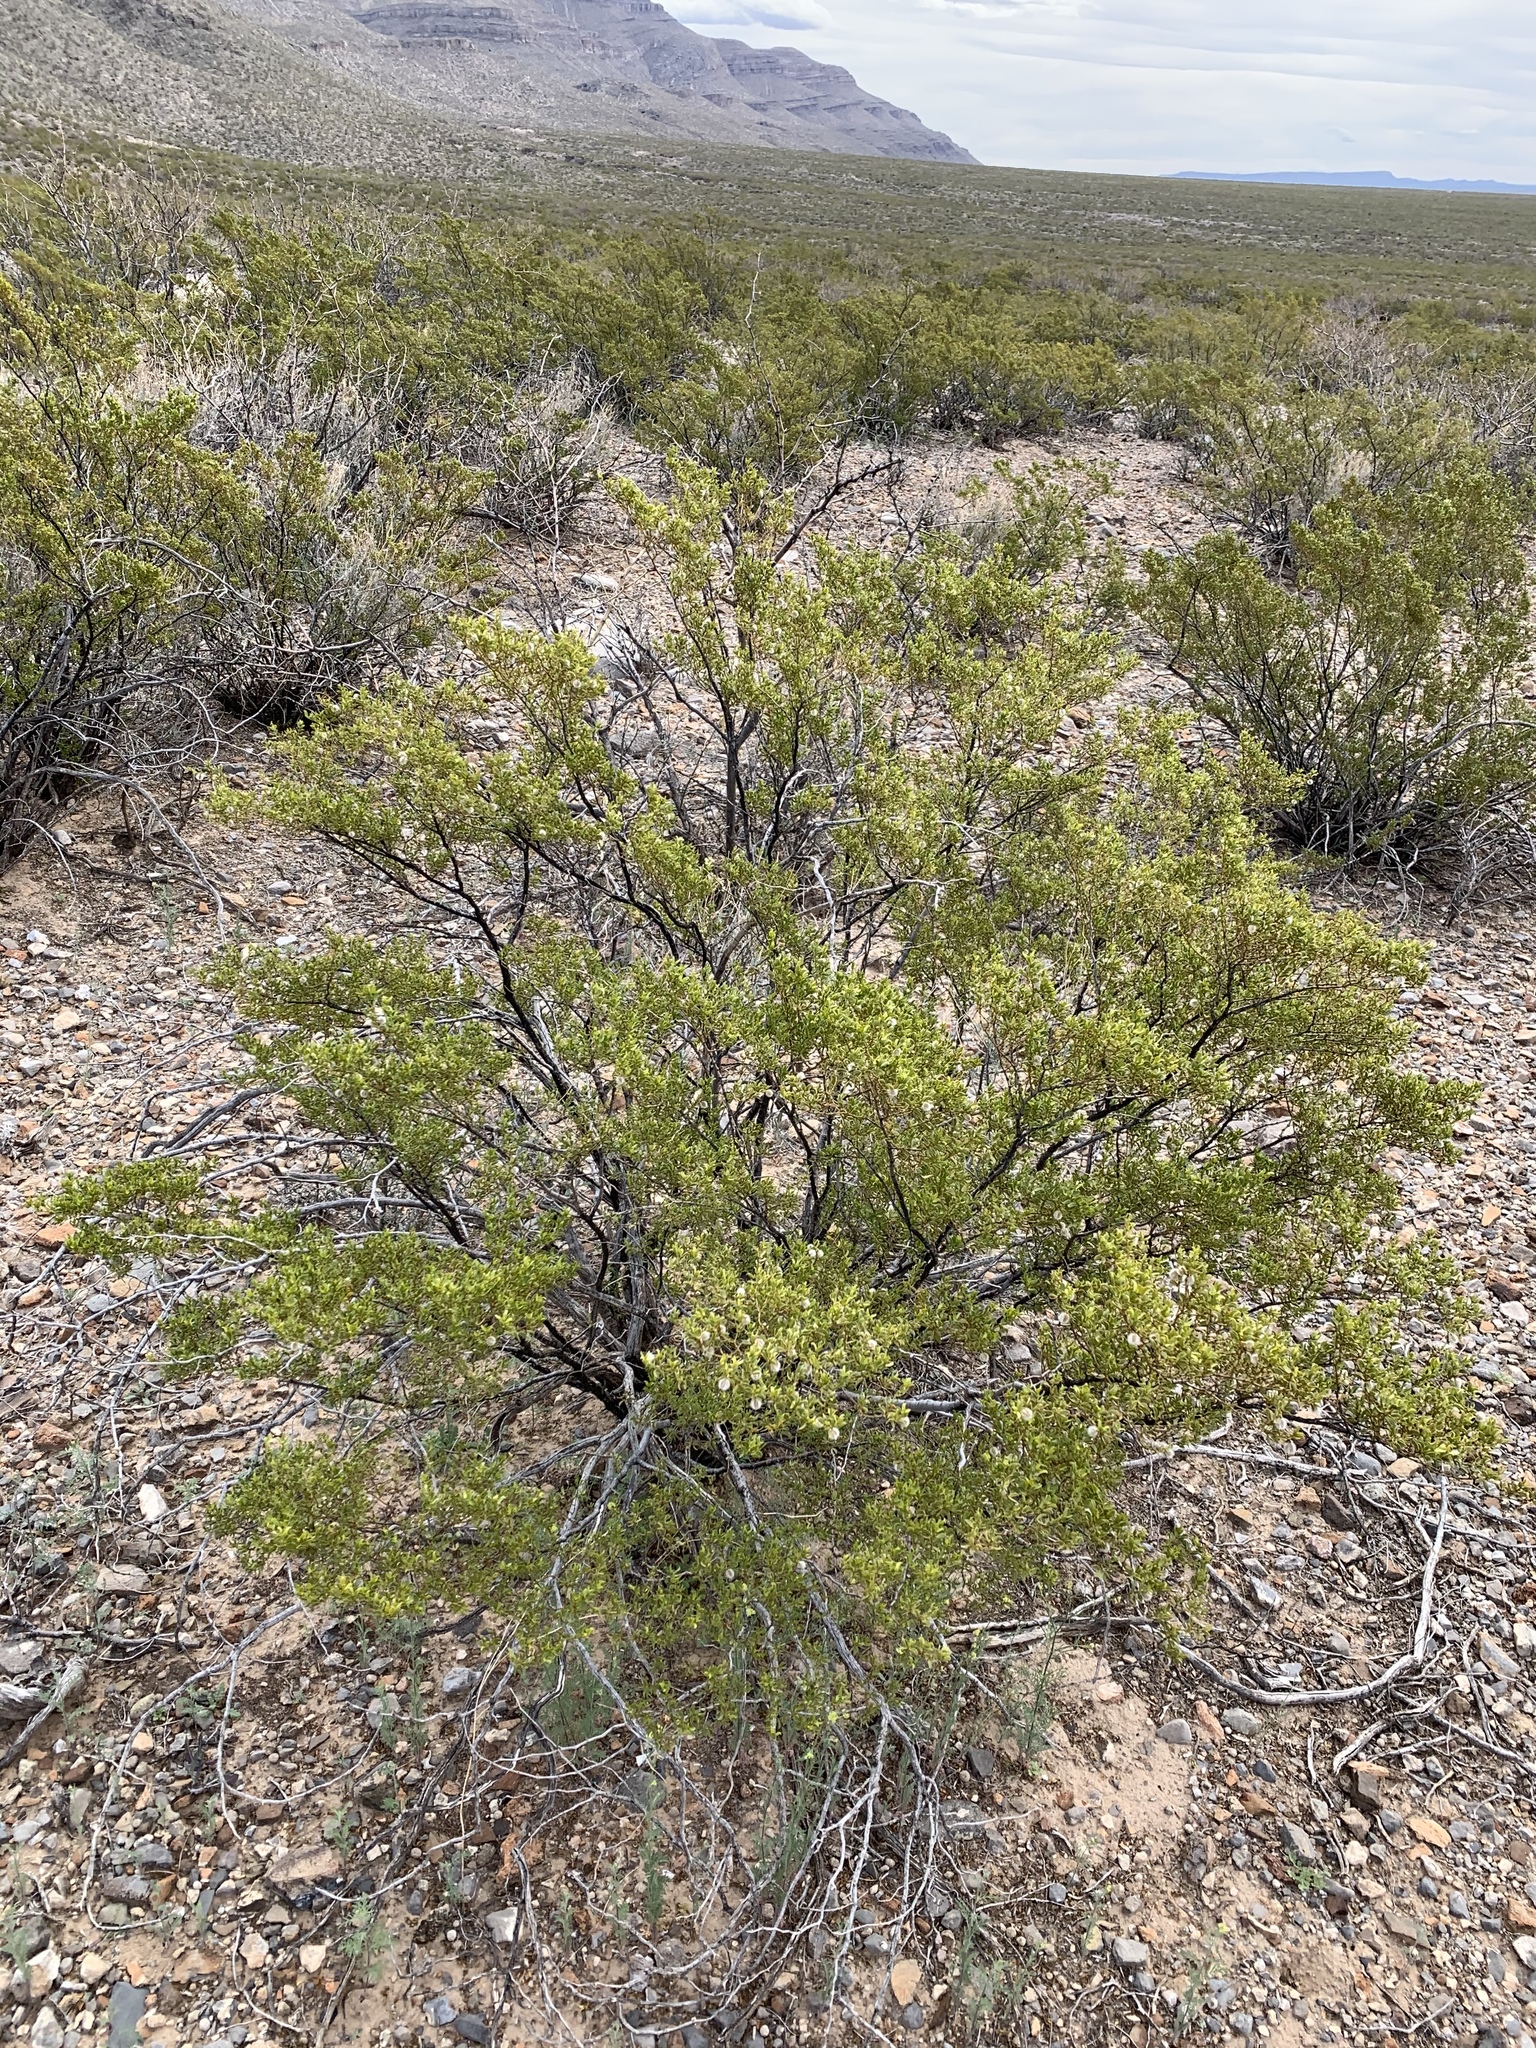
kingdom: Plantae
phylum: Tracheophyta
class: Magnoliopsida
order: Zygophyllales
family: Zygophyllaceae
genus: Larrea
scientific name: Larrea tridentata
